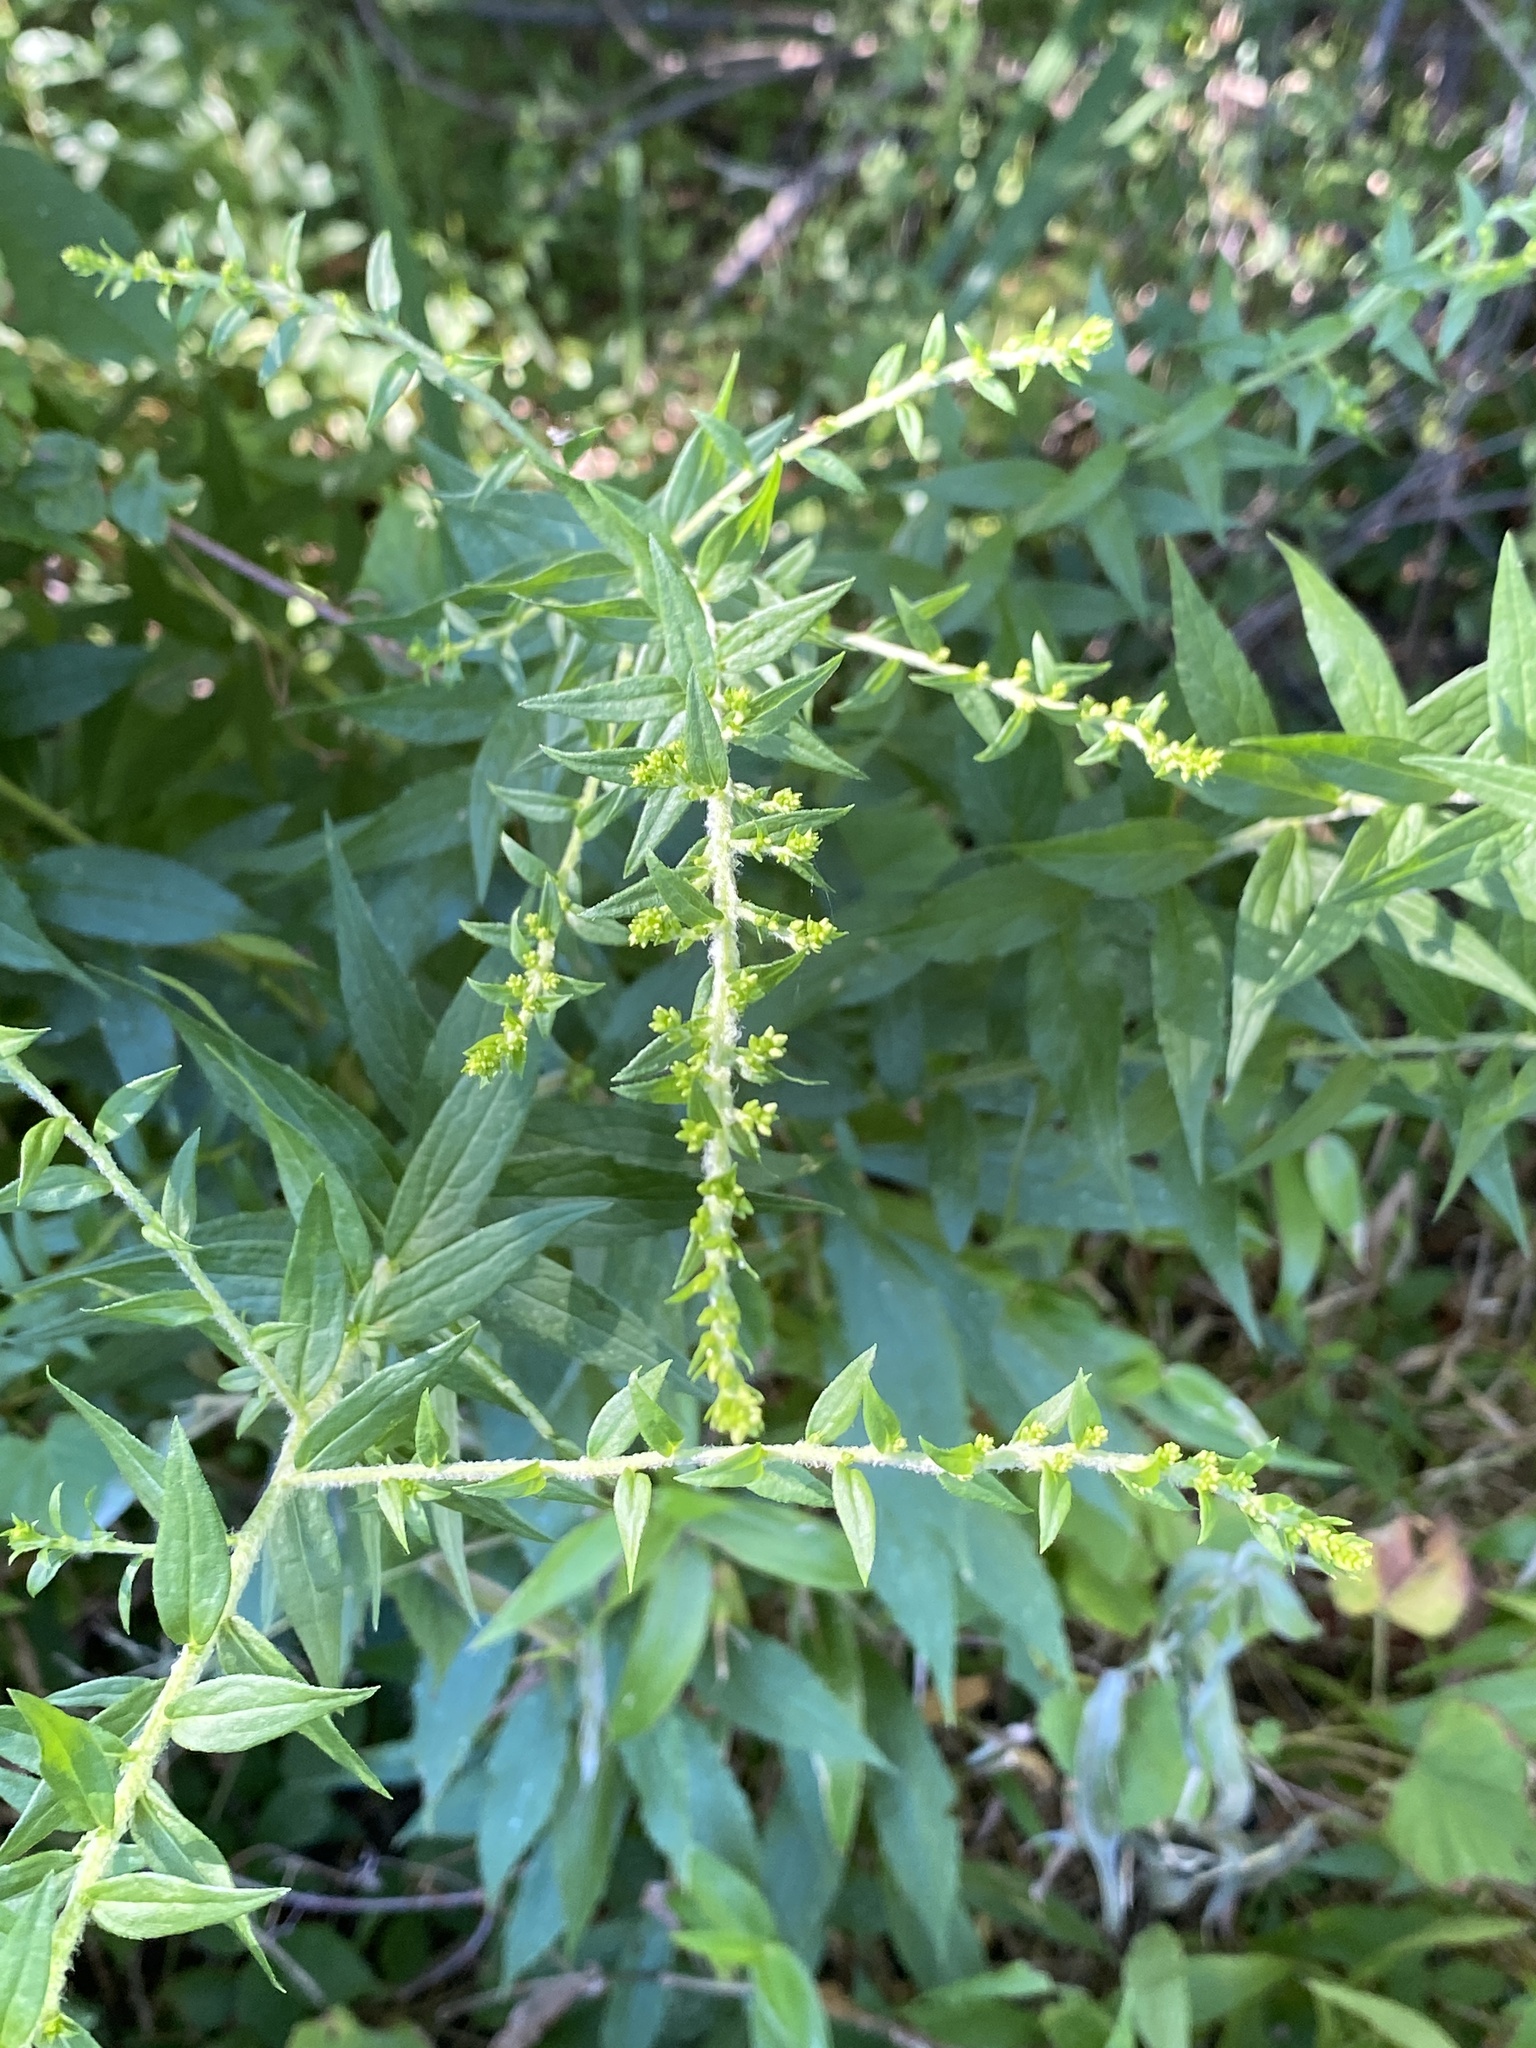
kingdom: Plantae
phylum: Tracheophyta
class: Magnoliopsida
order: Asterales
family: Asteraceae
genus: Solidago
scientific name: Solidago rugosa
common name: Rough-stemmed goldenrod
